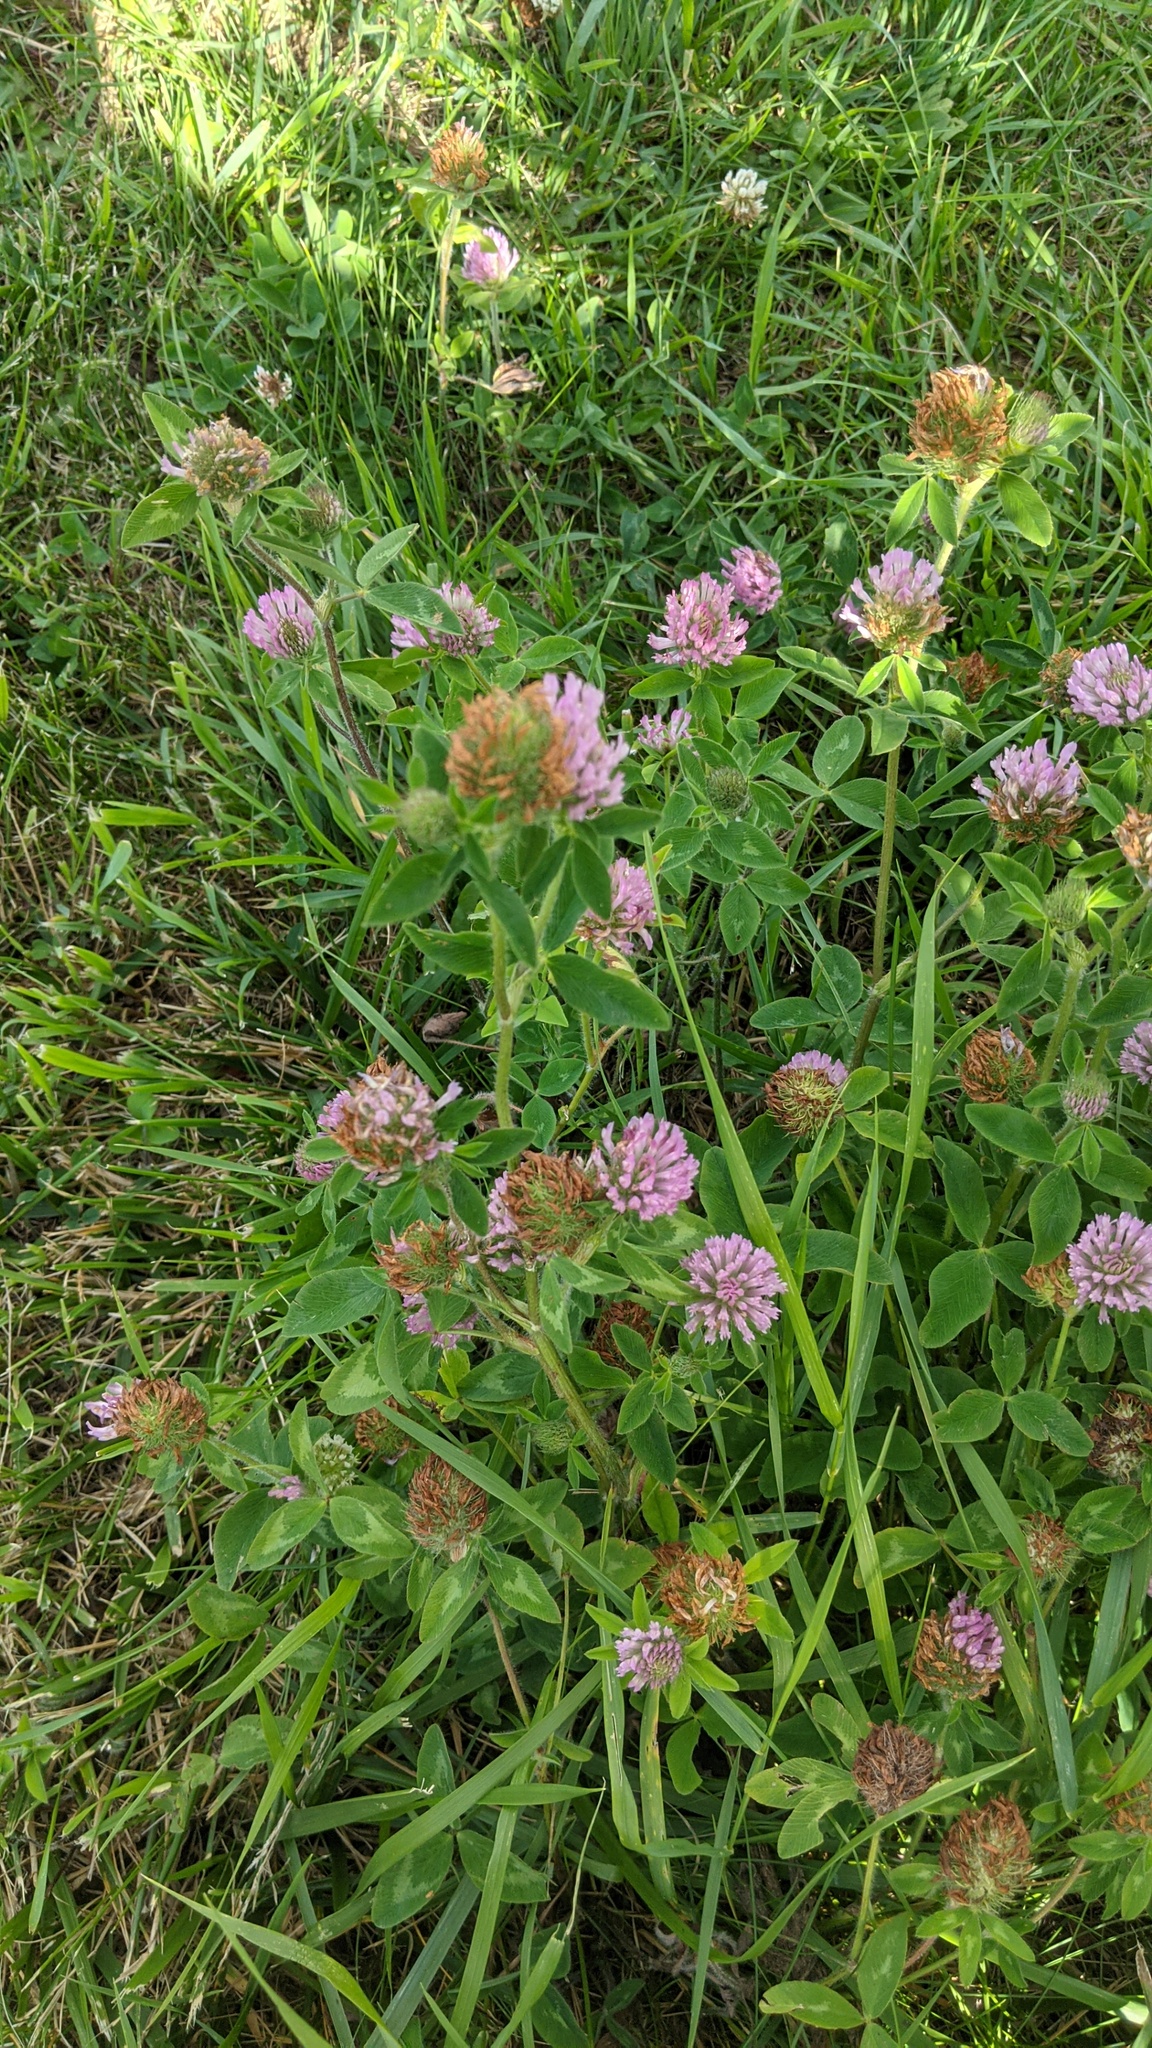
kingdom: Plantae
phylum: Tracheophyta
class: Magnoliopsida
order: Fabales
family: Fabaceae
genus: Trifolium
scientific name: Trifolium pratense
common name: Red clover
